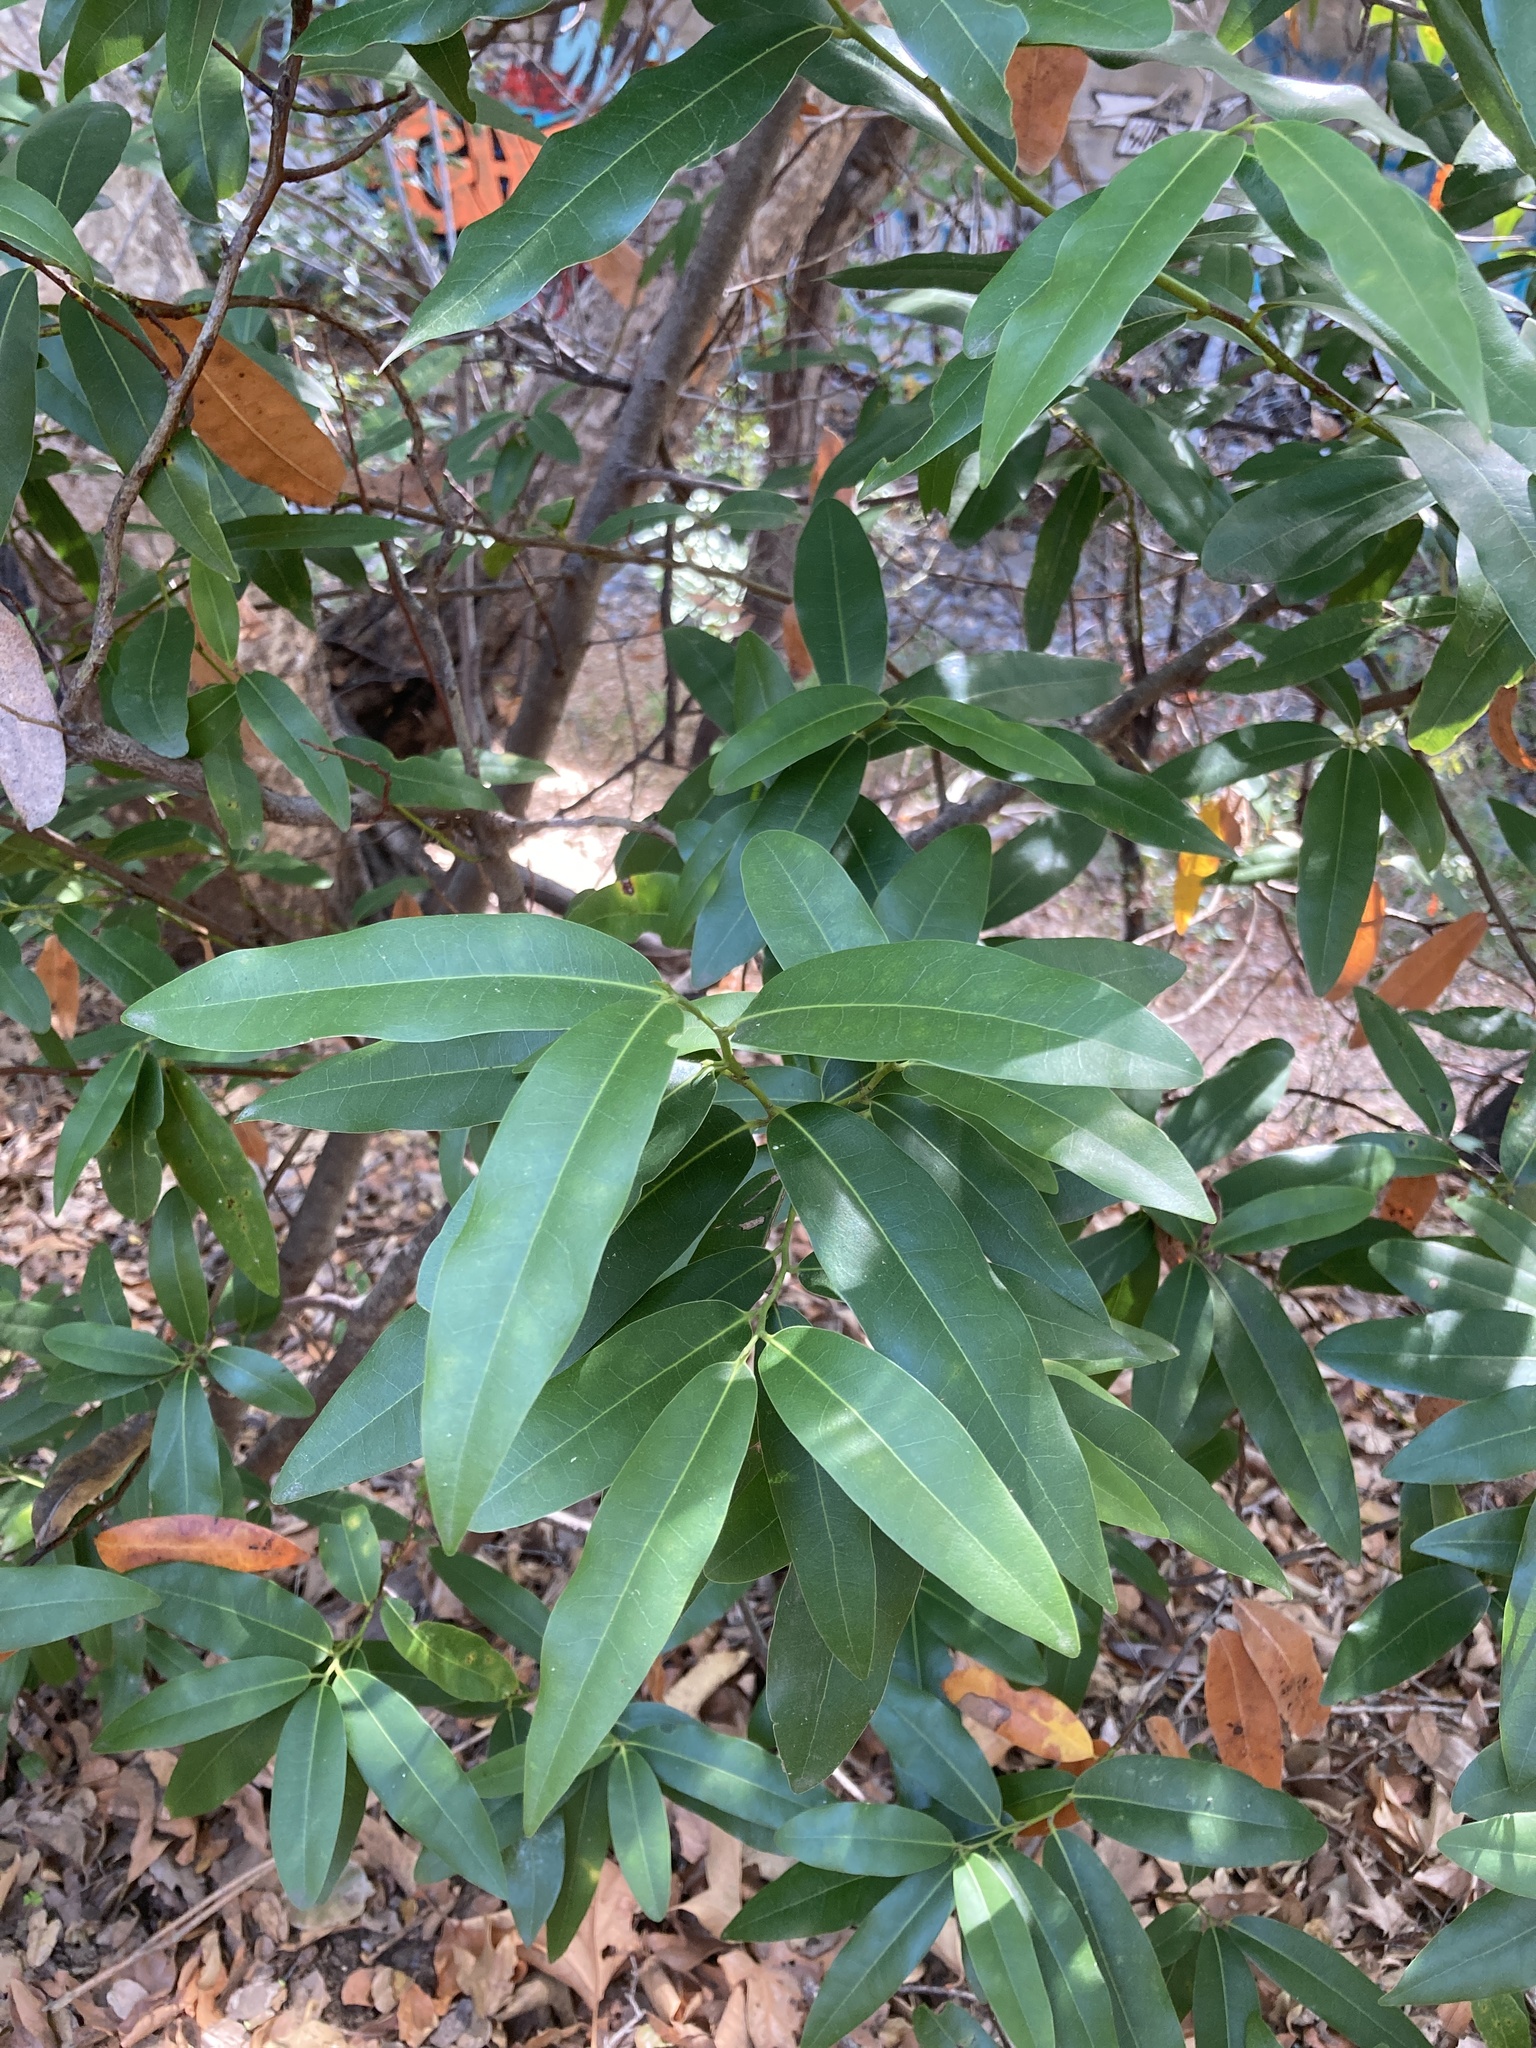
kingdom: Plantae
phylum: Tracheophyta
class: Magnoliopsida
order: Laurales
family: Lauraceae
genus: Umbellularia
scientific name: Umbellularia californica
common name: California bay
